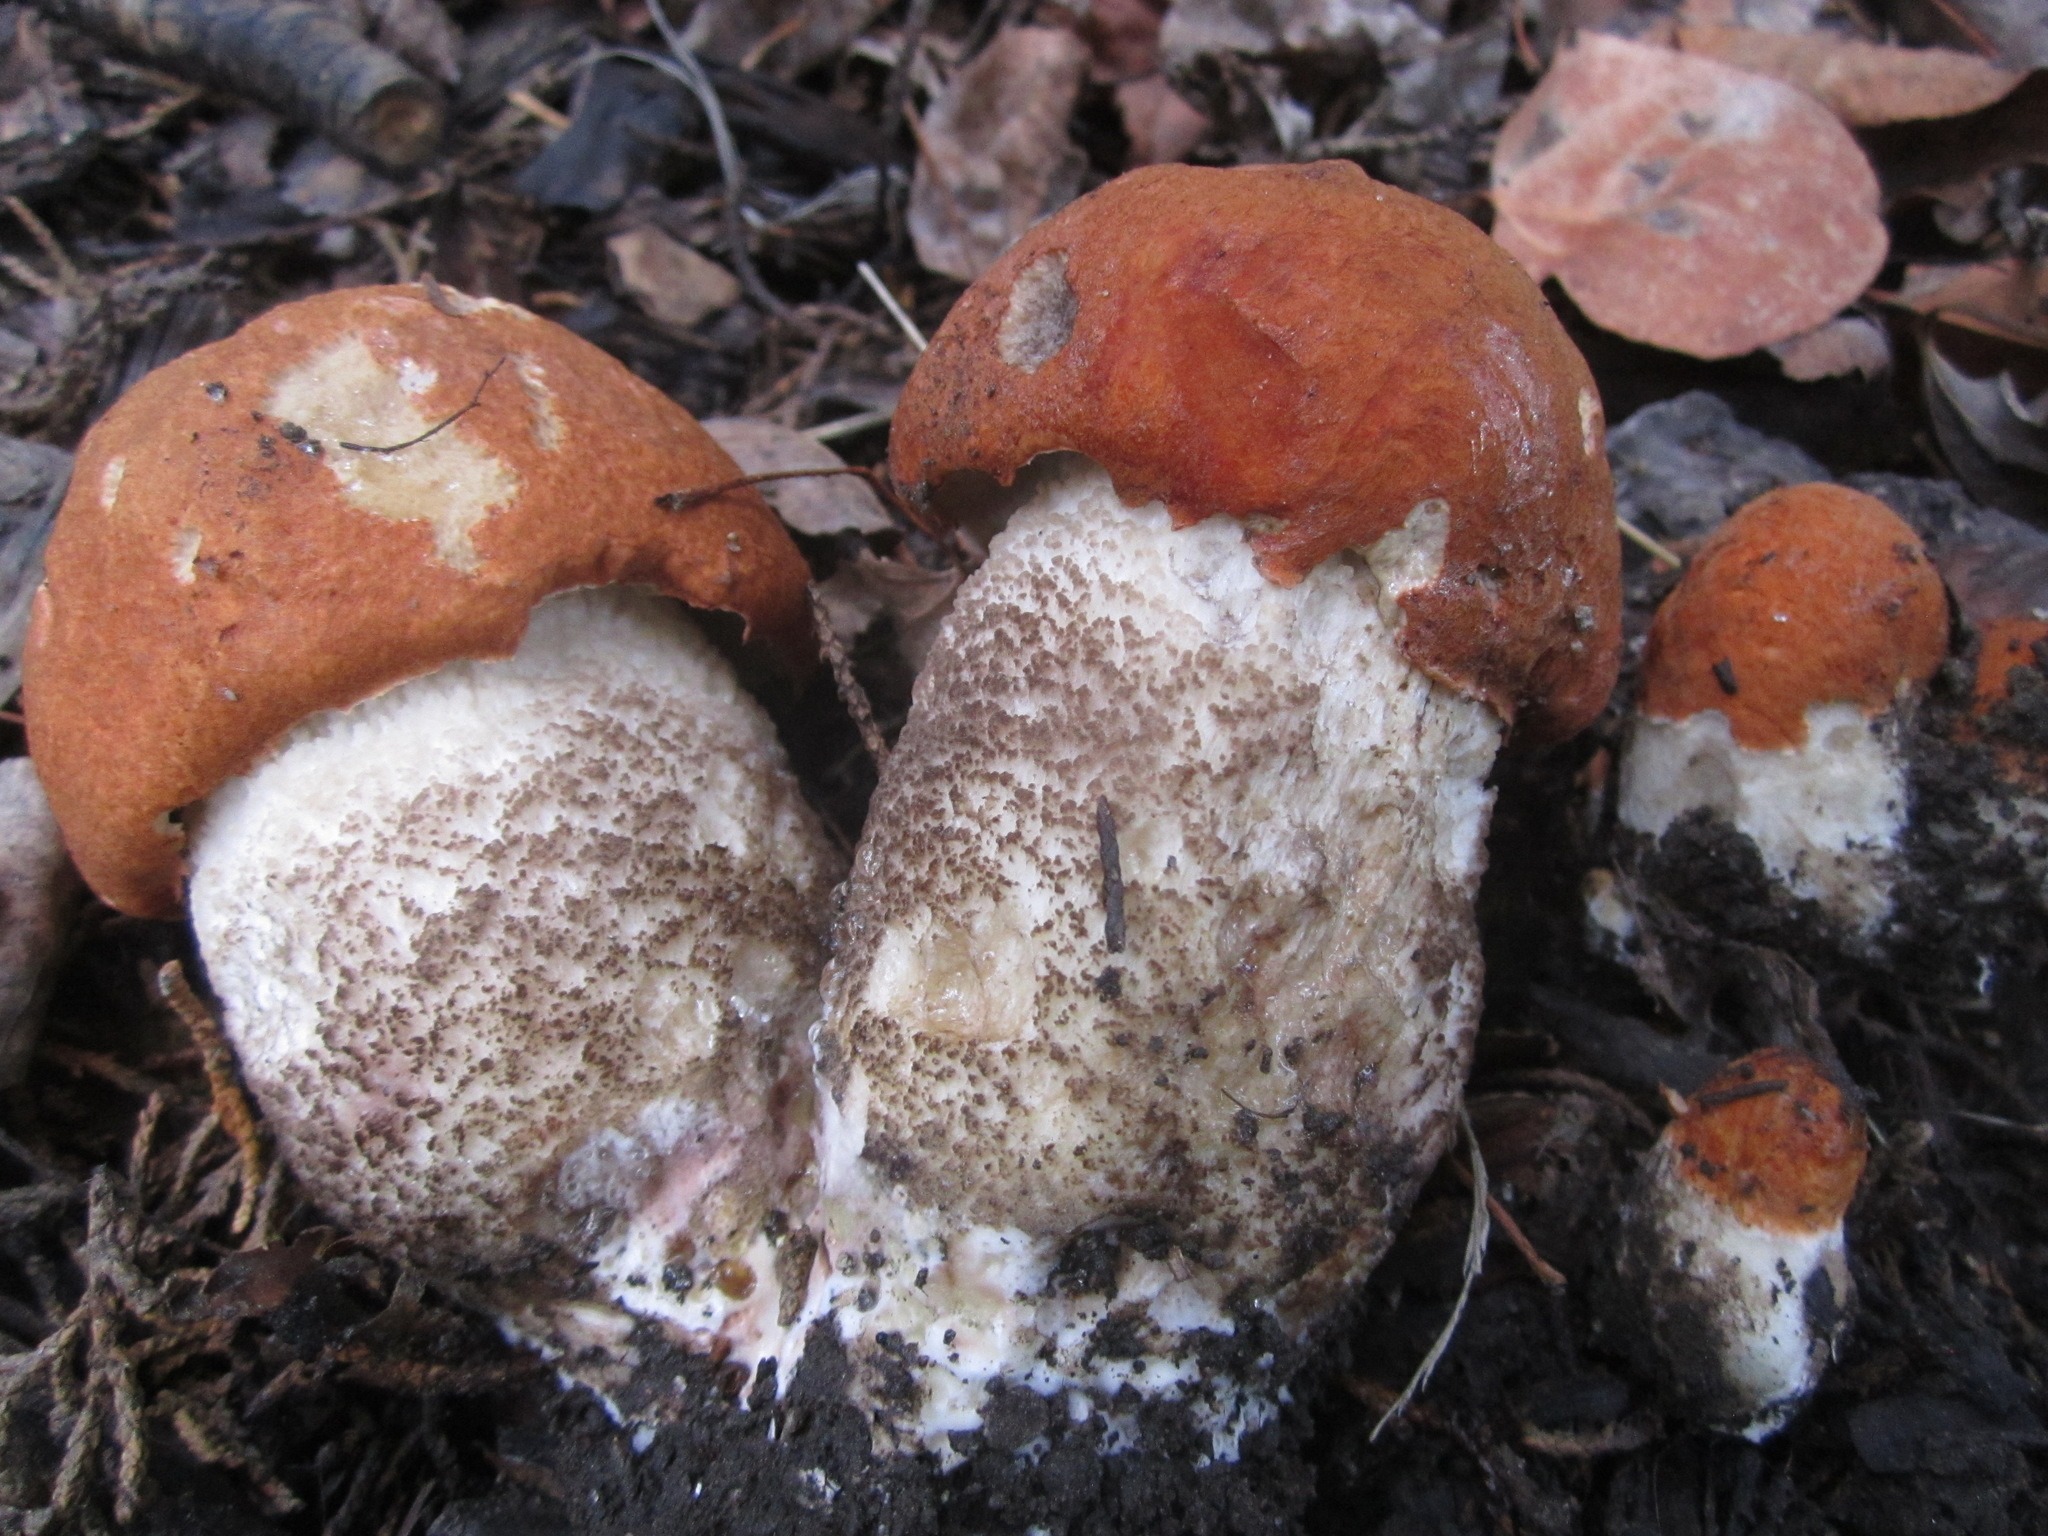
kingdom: Fungi
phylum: Basidiomycota
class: Agaricomycetes
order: Boletales
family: Boletaceae
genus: Leccinum
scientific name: Leccinum insigne
